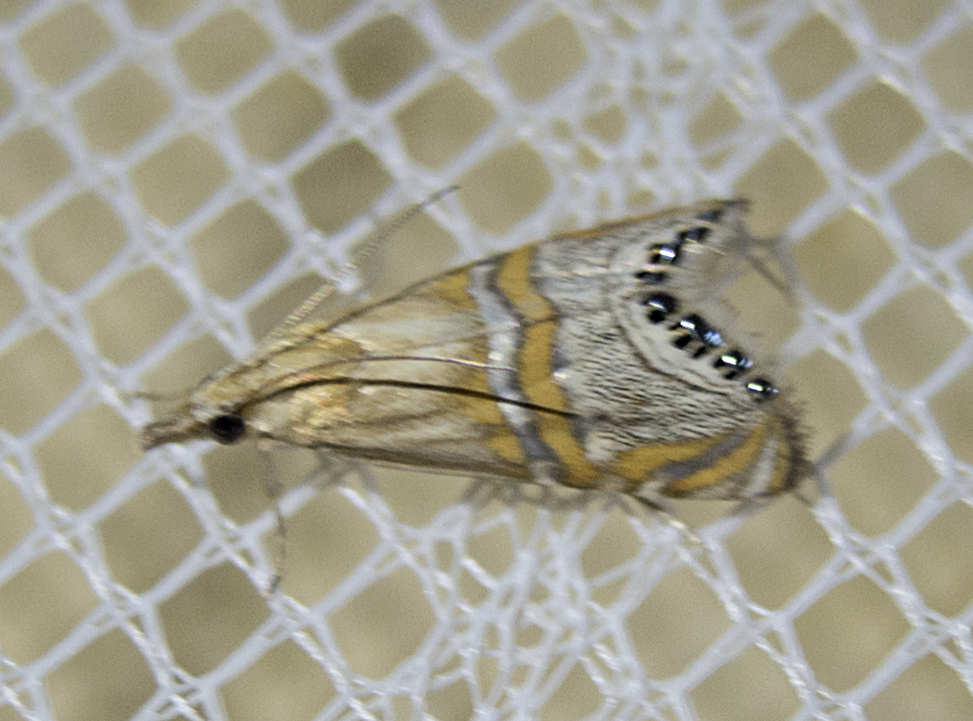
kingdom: Animalia
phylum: Arthropoda
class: Insecta
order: Lepidoptera
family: Crambidae
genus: Euchromius
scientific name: Euchromius bella
